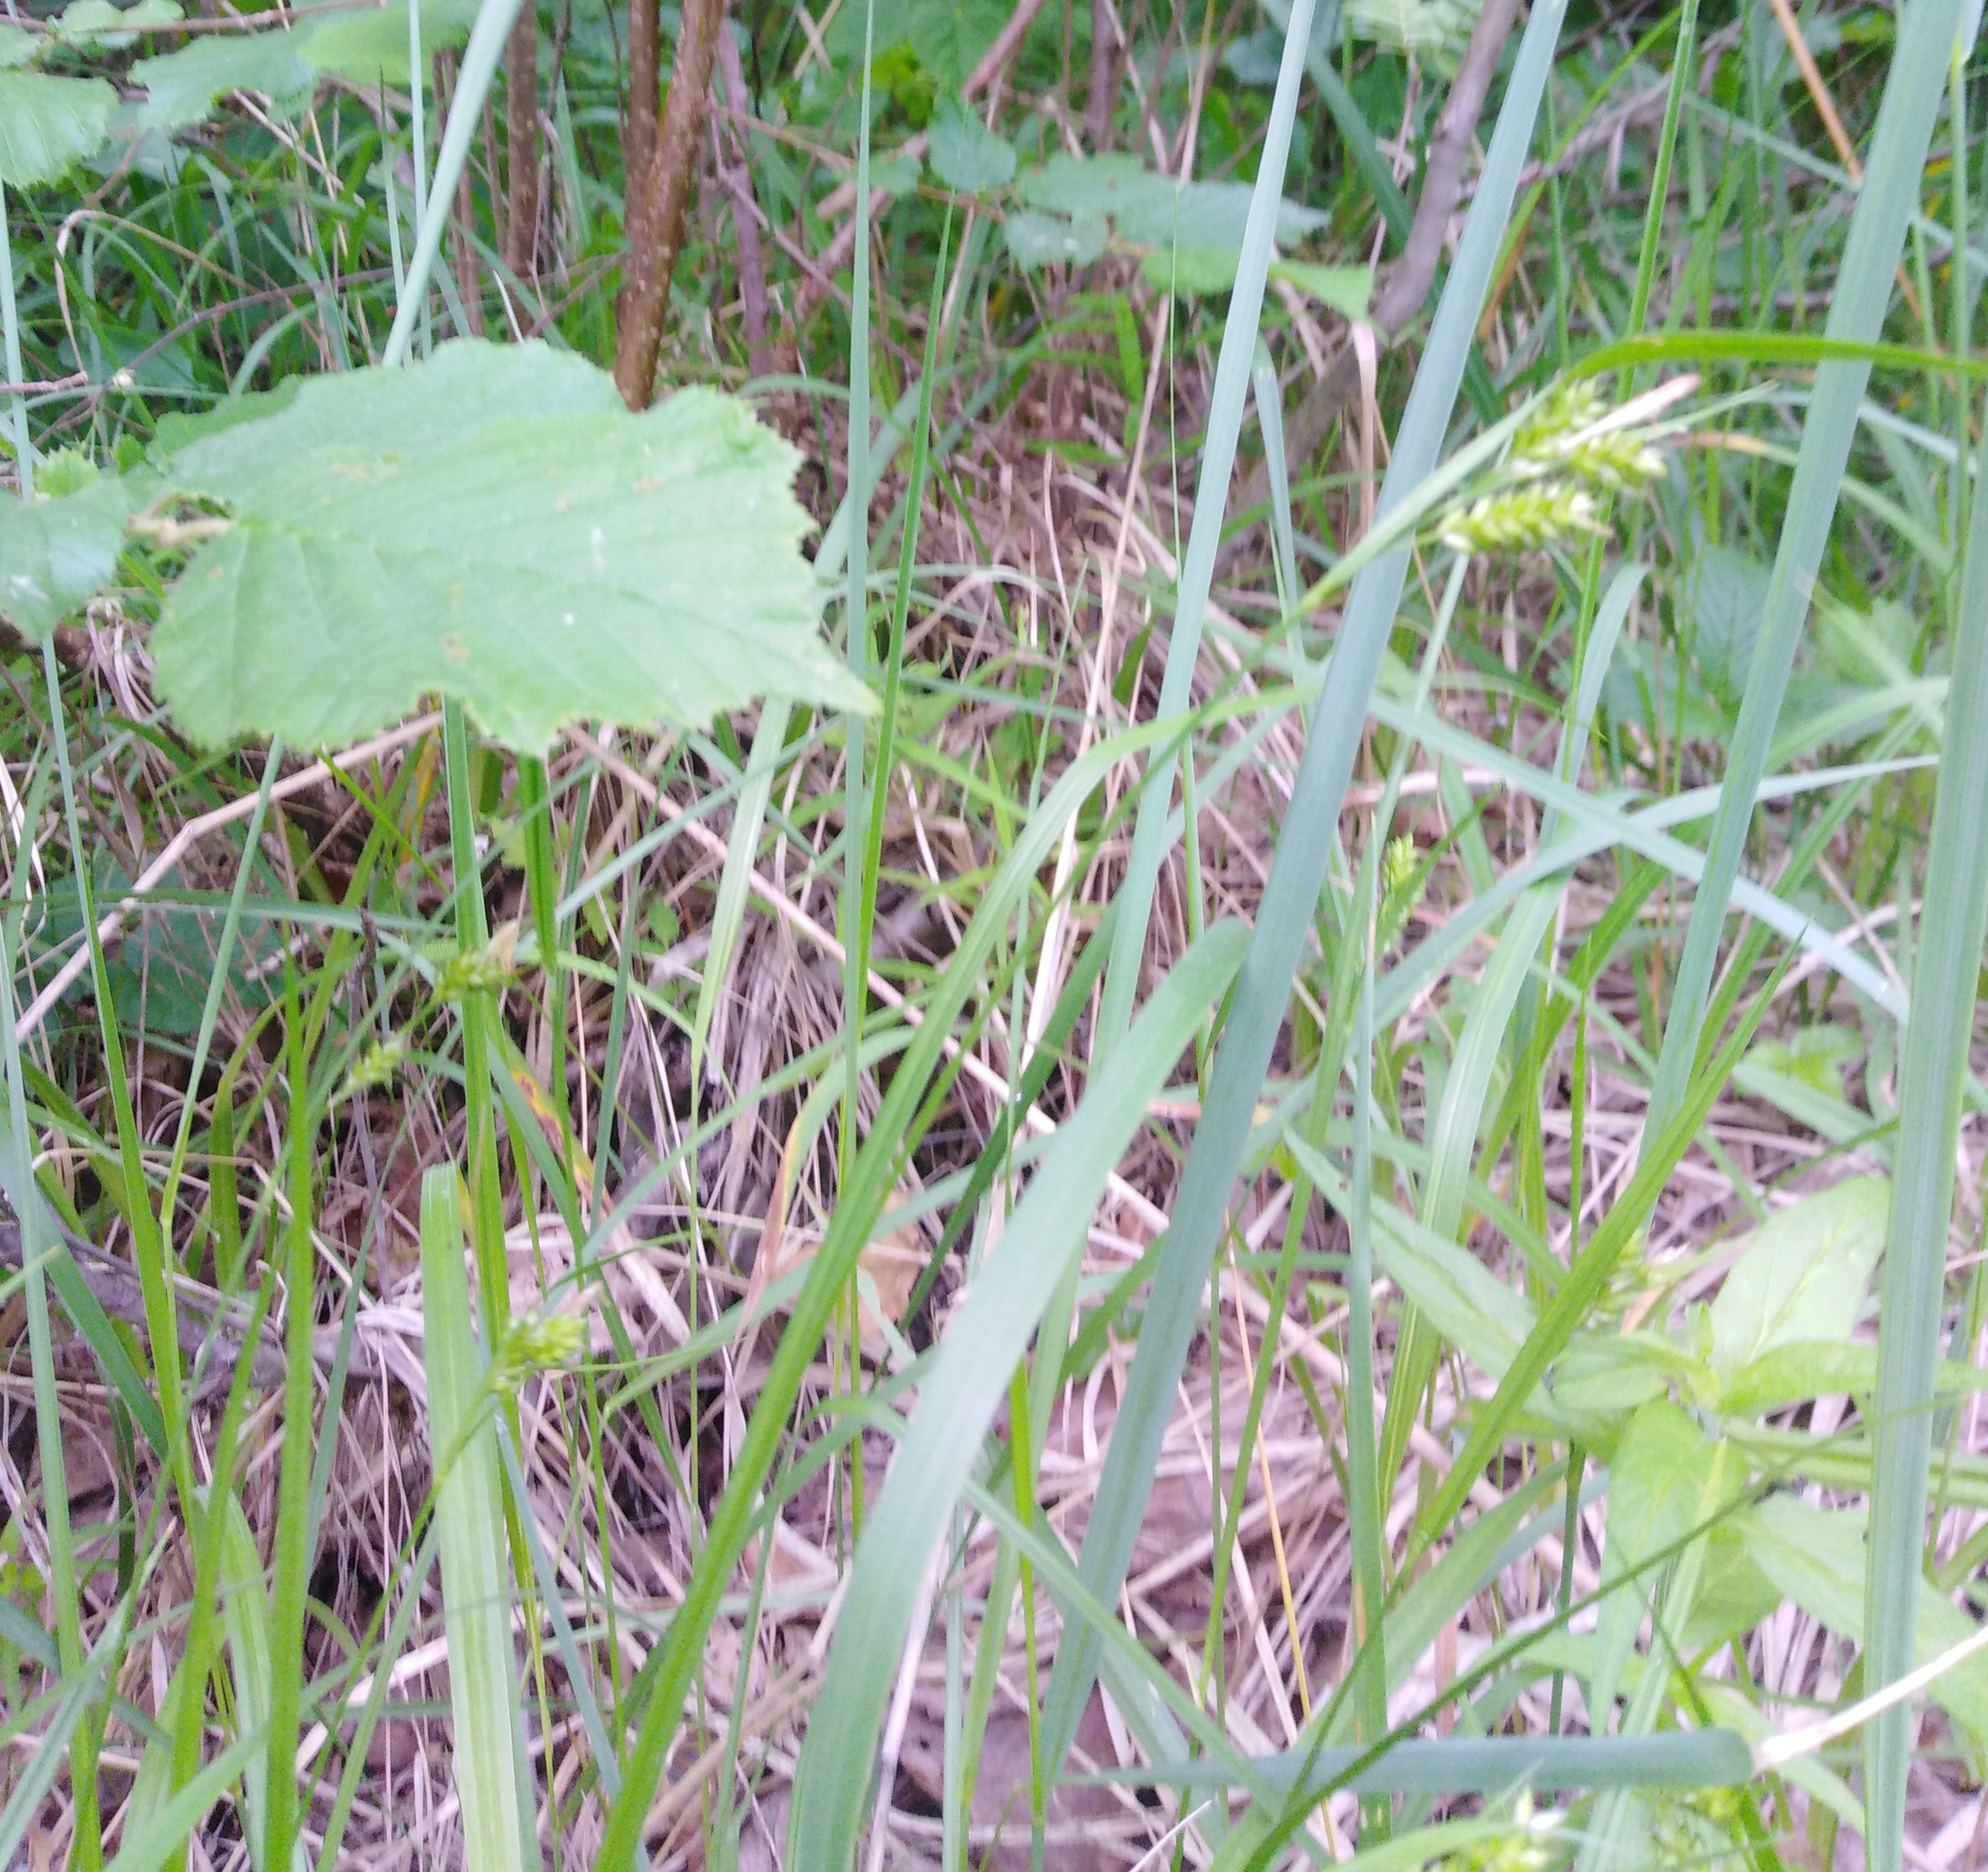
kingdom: Plantae
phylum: Tracheophyta
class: Liliopsida
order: Poales
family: Cyperaceae
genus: Carex
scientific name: Carex pallescens
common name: Pale sedge
